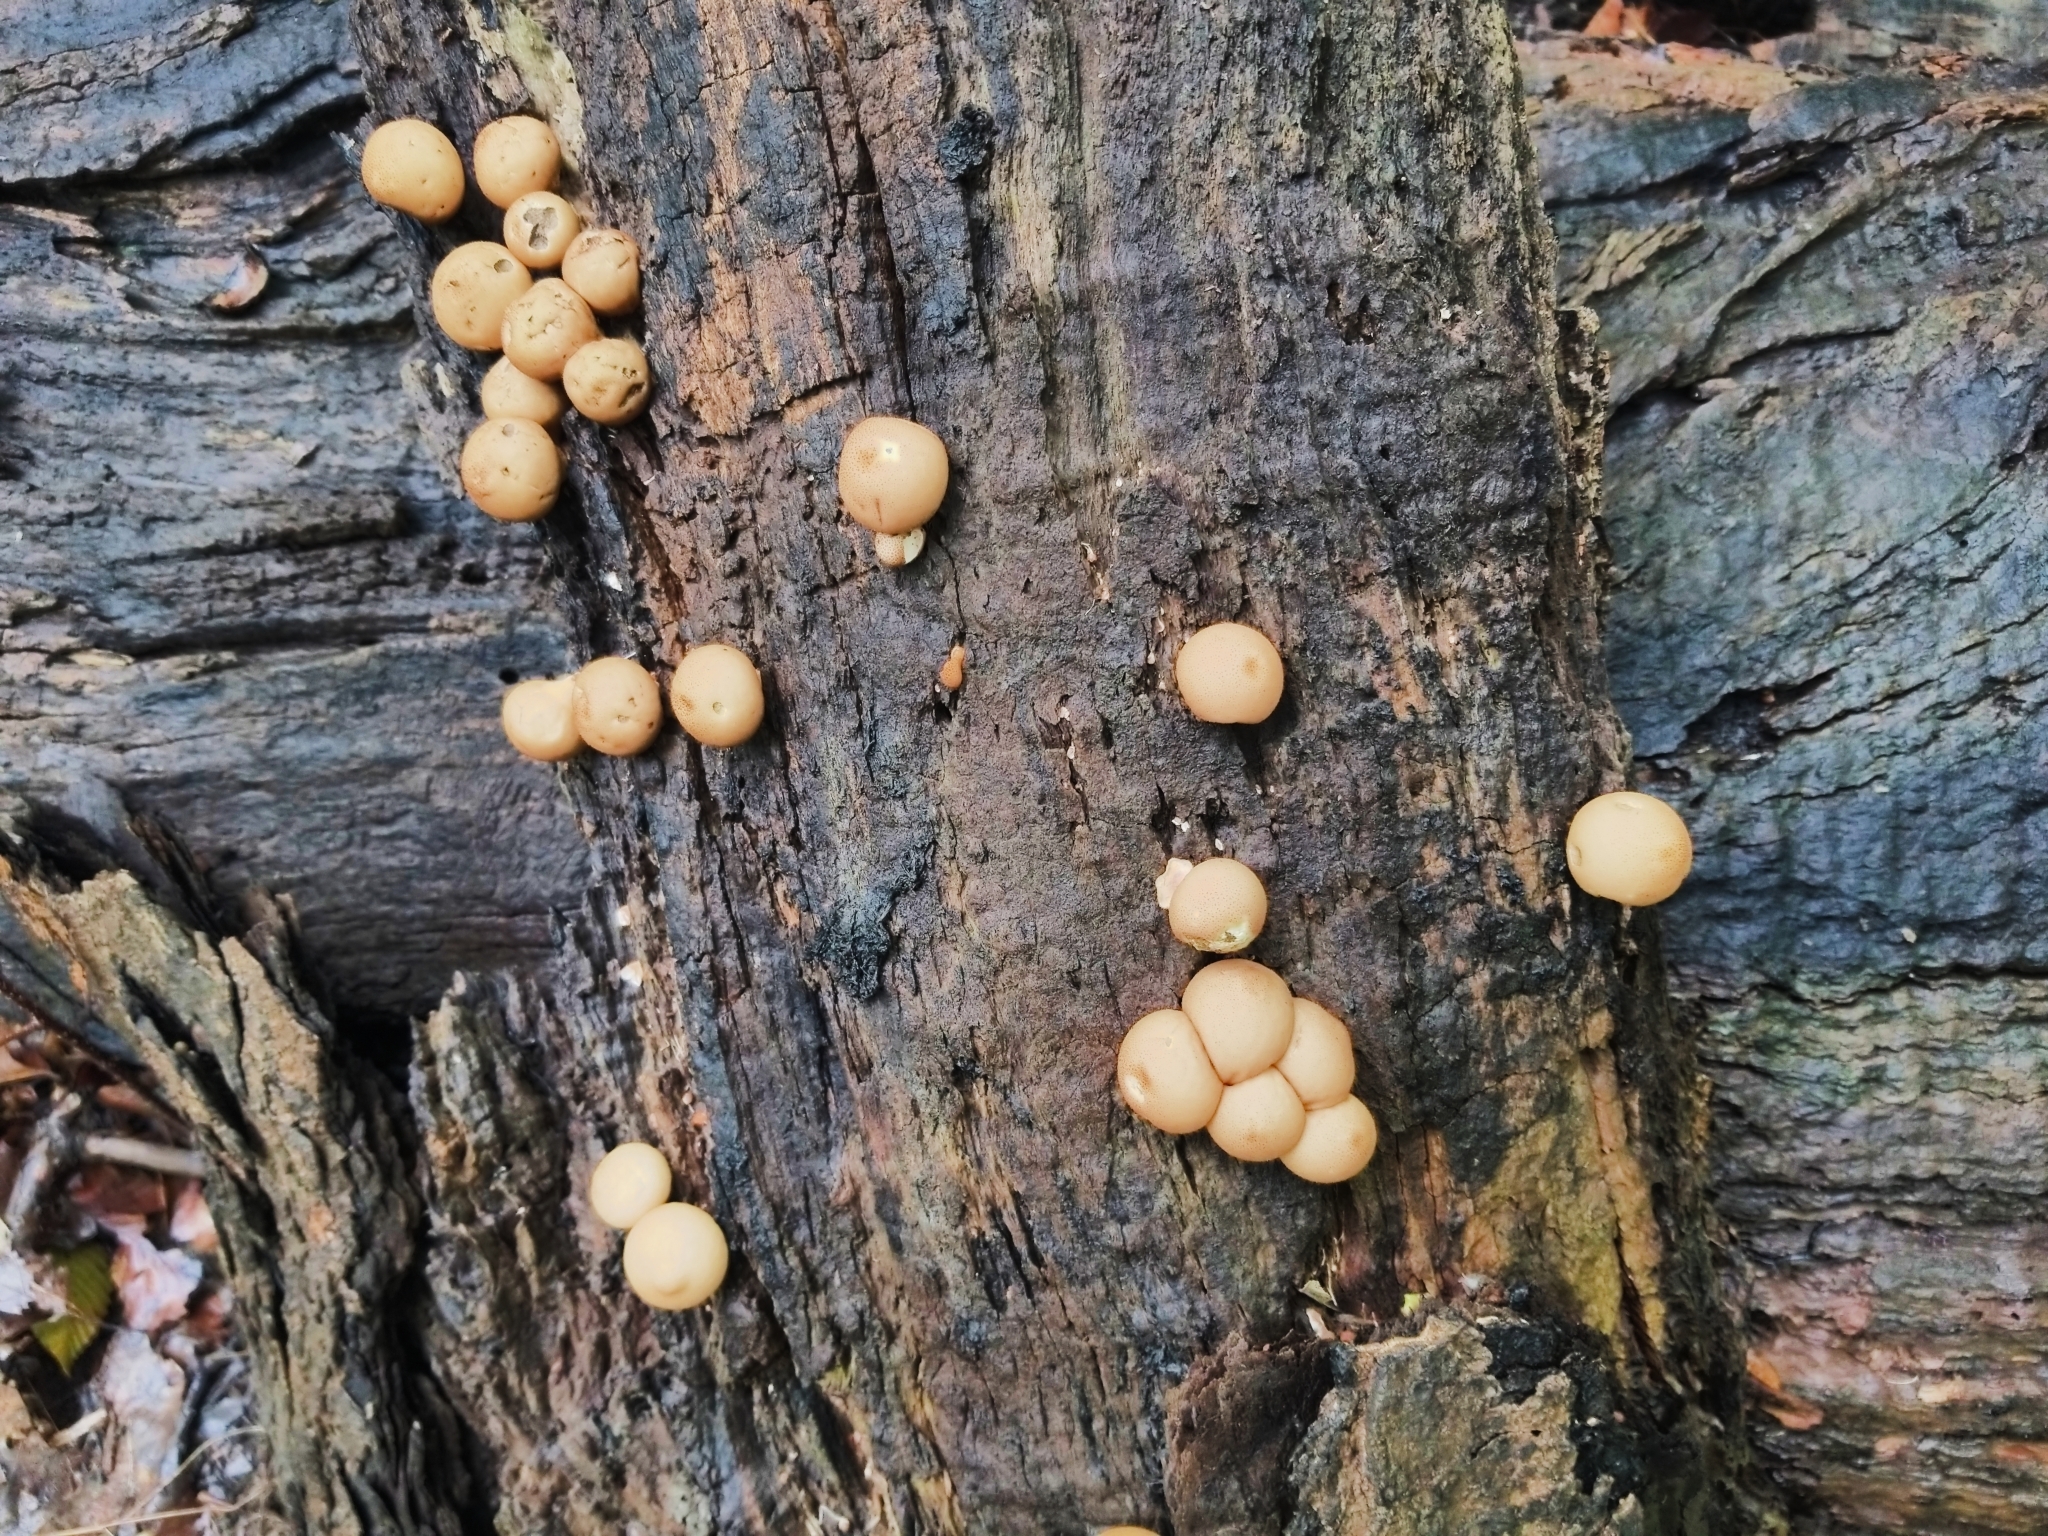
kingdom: Fungi
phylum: Basidiomycota
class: Agaricomycetes
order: Agaricales
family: Lycoperdaceae
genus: Apioperdon
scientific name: Apioperdon pyriforme
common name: Pear-shaped puffball
